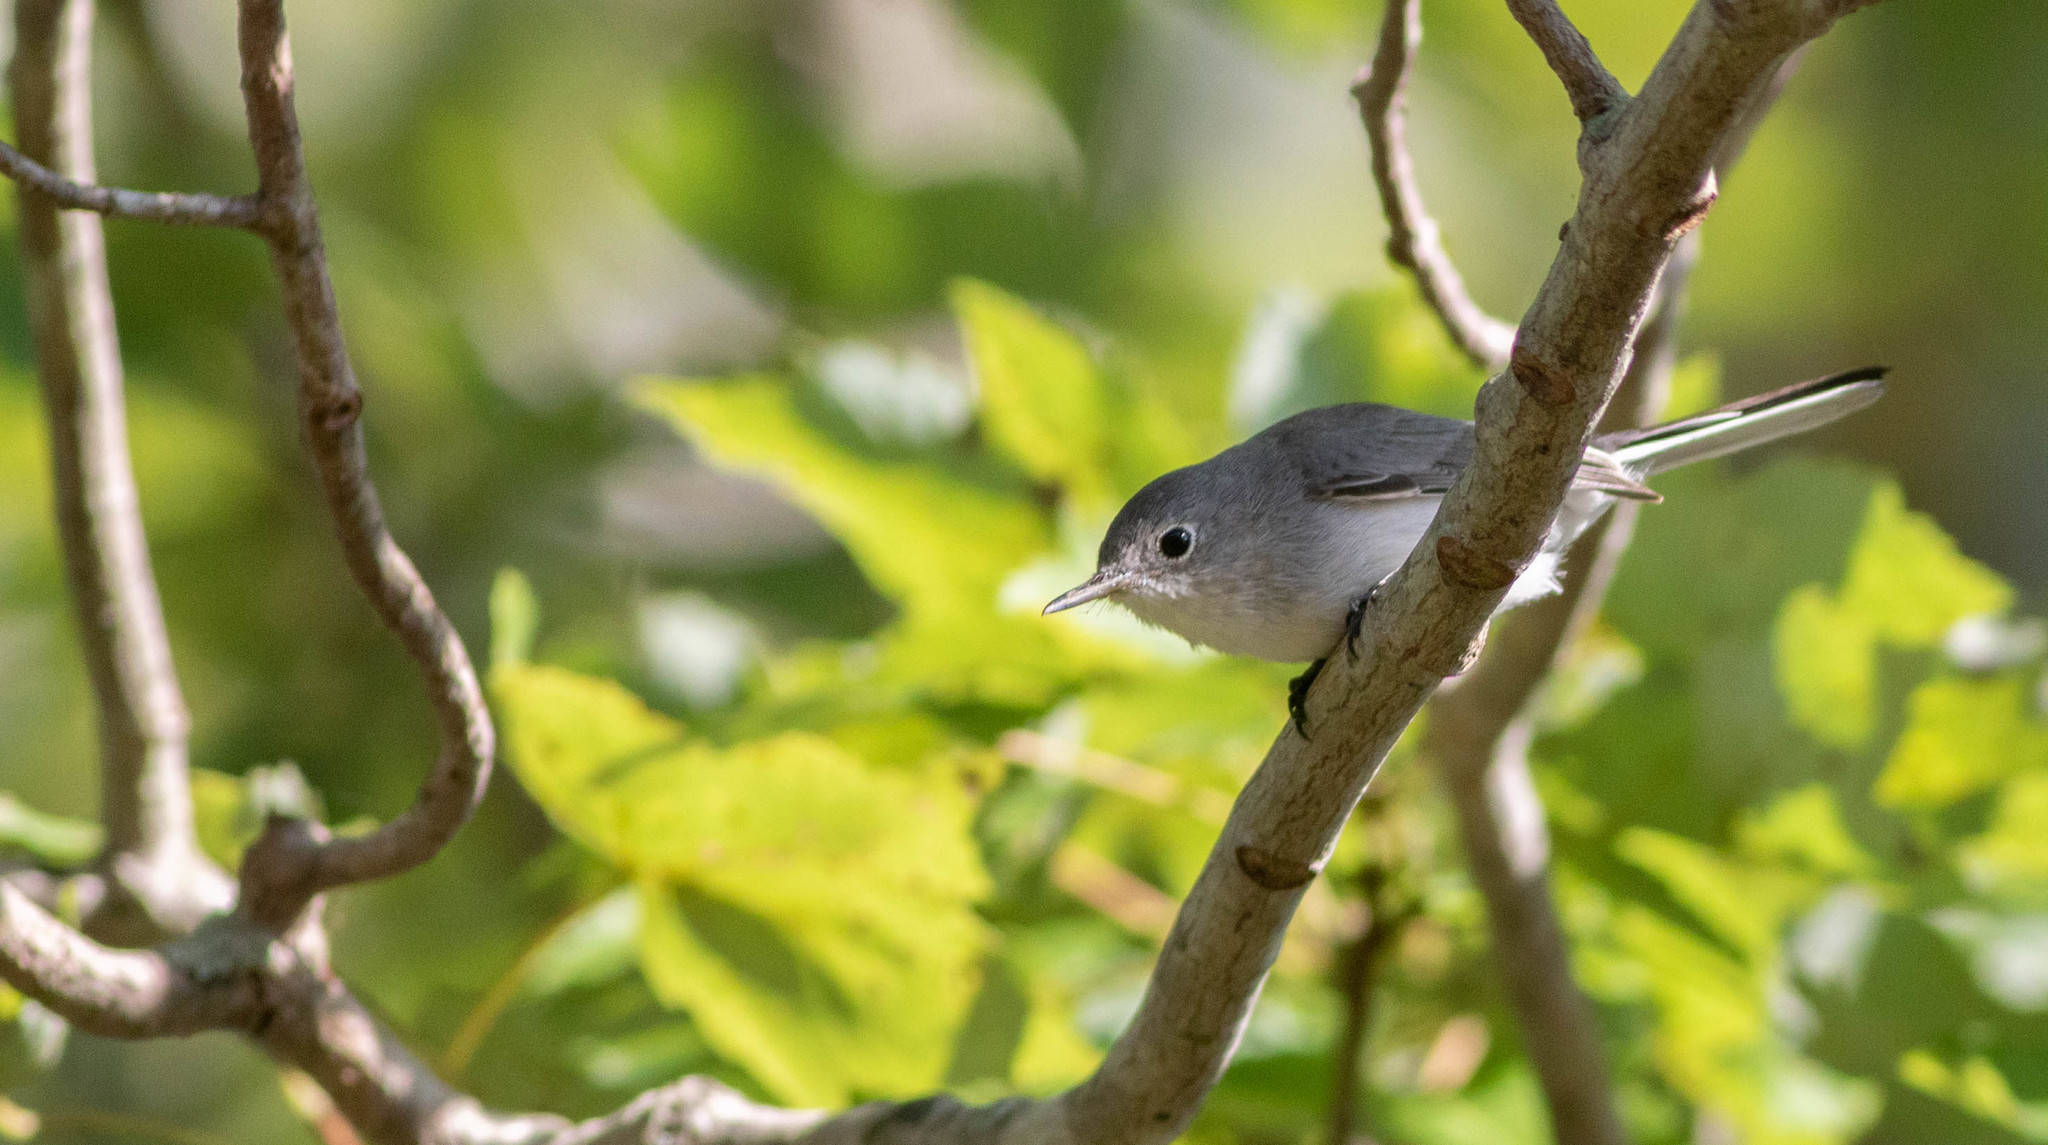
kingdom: Animalia
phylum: Chordata
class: Aves
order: Passeriformes
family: Polioptilidae
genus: Polioptila
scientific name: Polioptila caerulea
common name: Blue-gray gnatcatcher
